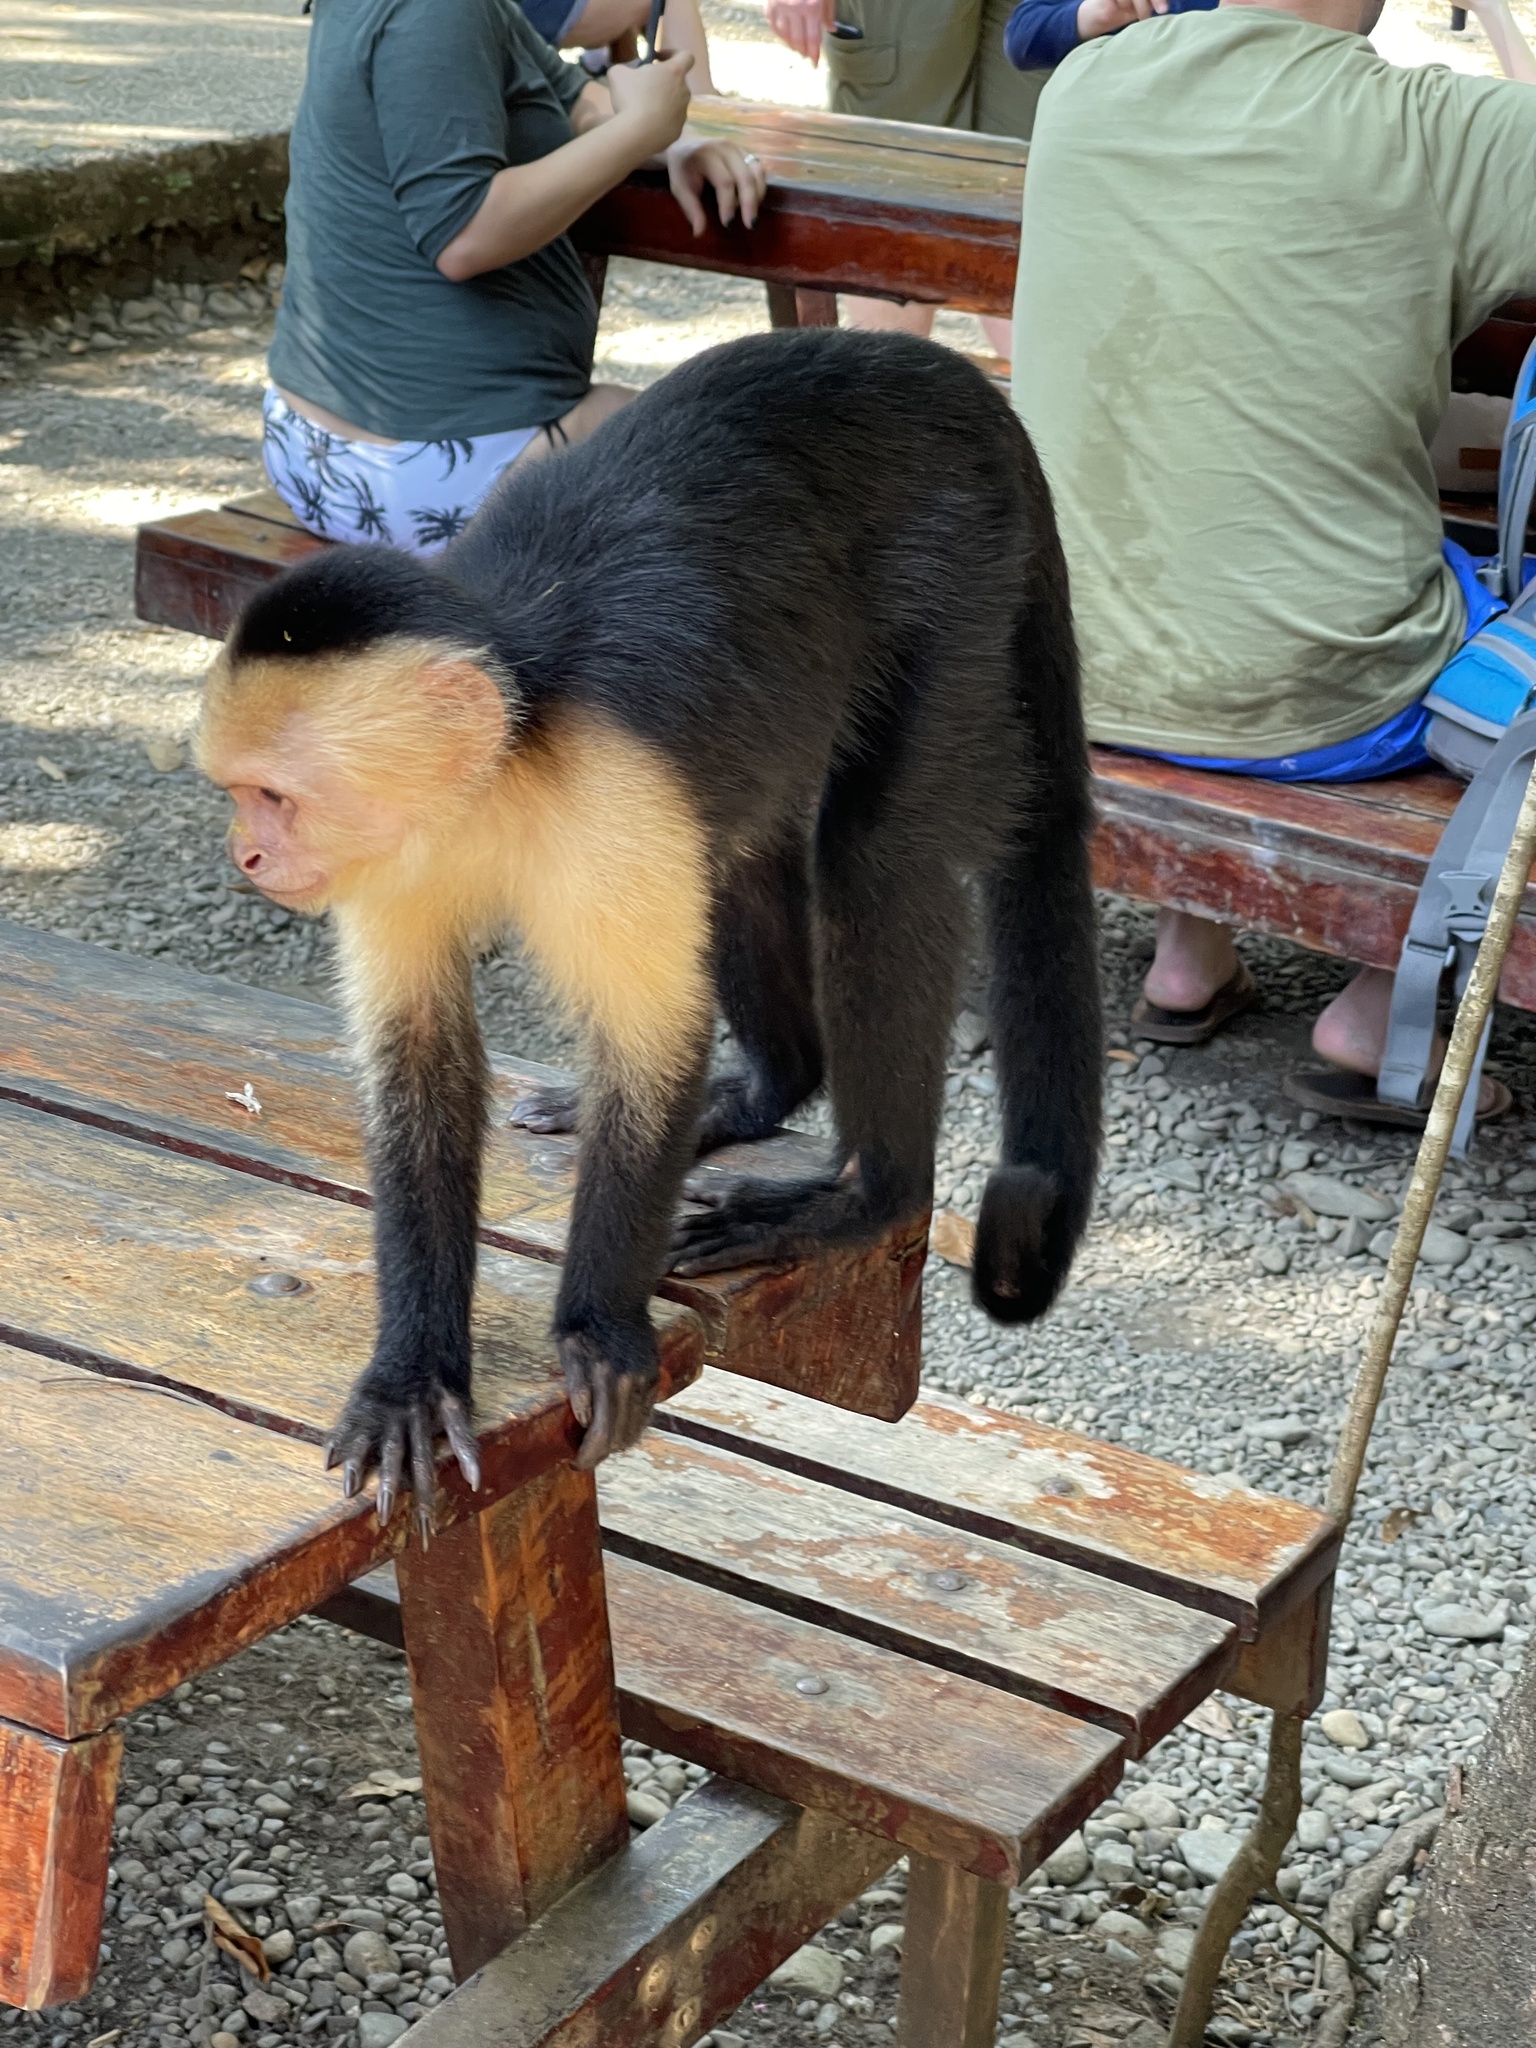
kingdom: Animalia
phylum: Chordata
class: Mammalia
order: Primates
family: Cebidae
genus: Cebus
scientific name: Cebus imitator
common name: Panamanian white-faced capuchin
